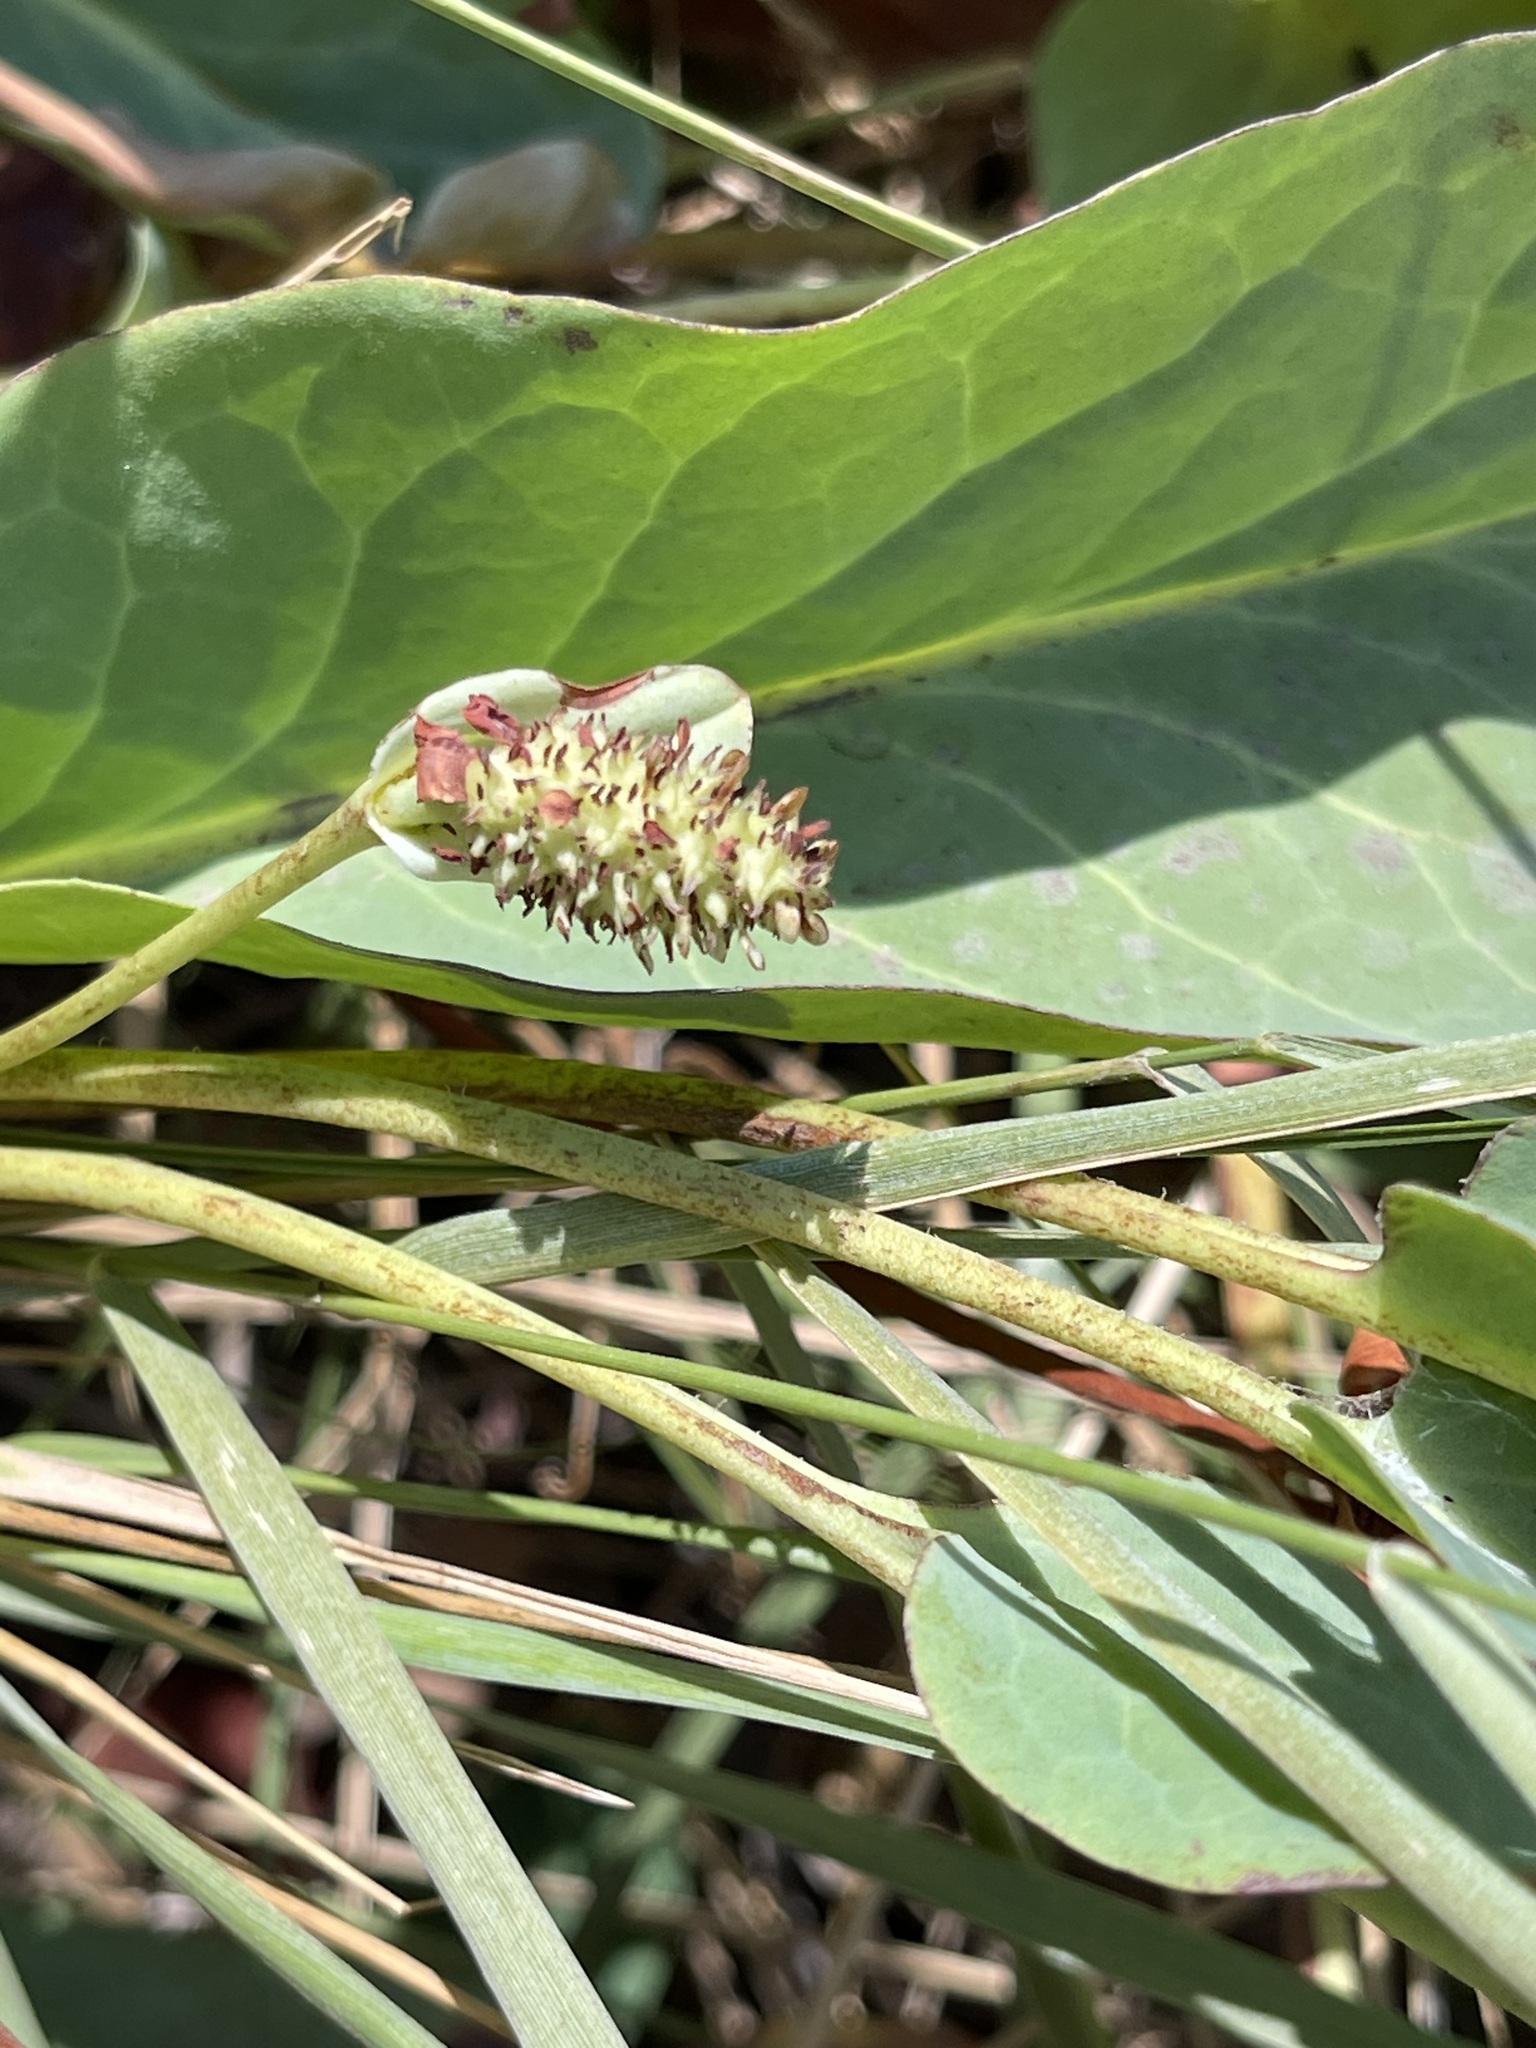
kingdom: Plantae
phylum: Tracheophyta
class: Magnoliopsida
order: Piperales
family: Saururaceae
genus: Anemopsis
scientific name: Anemopsis californica
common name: Apache-beads
